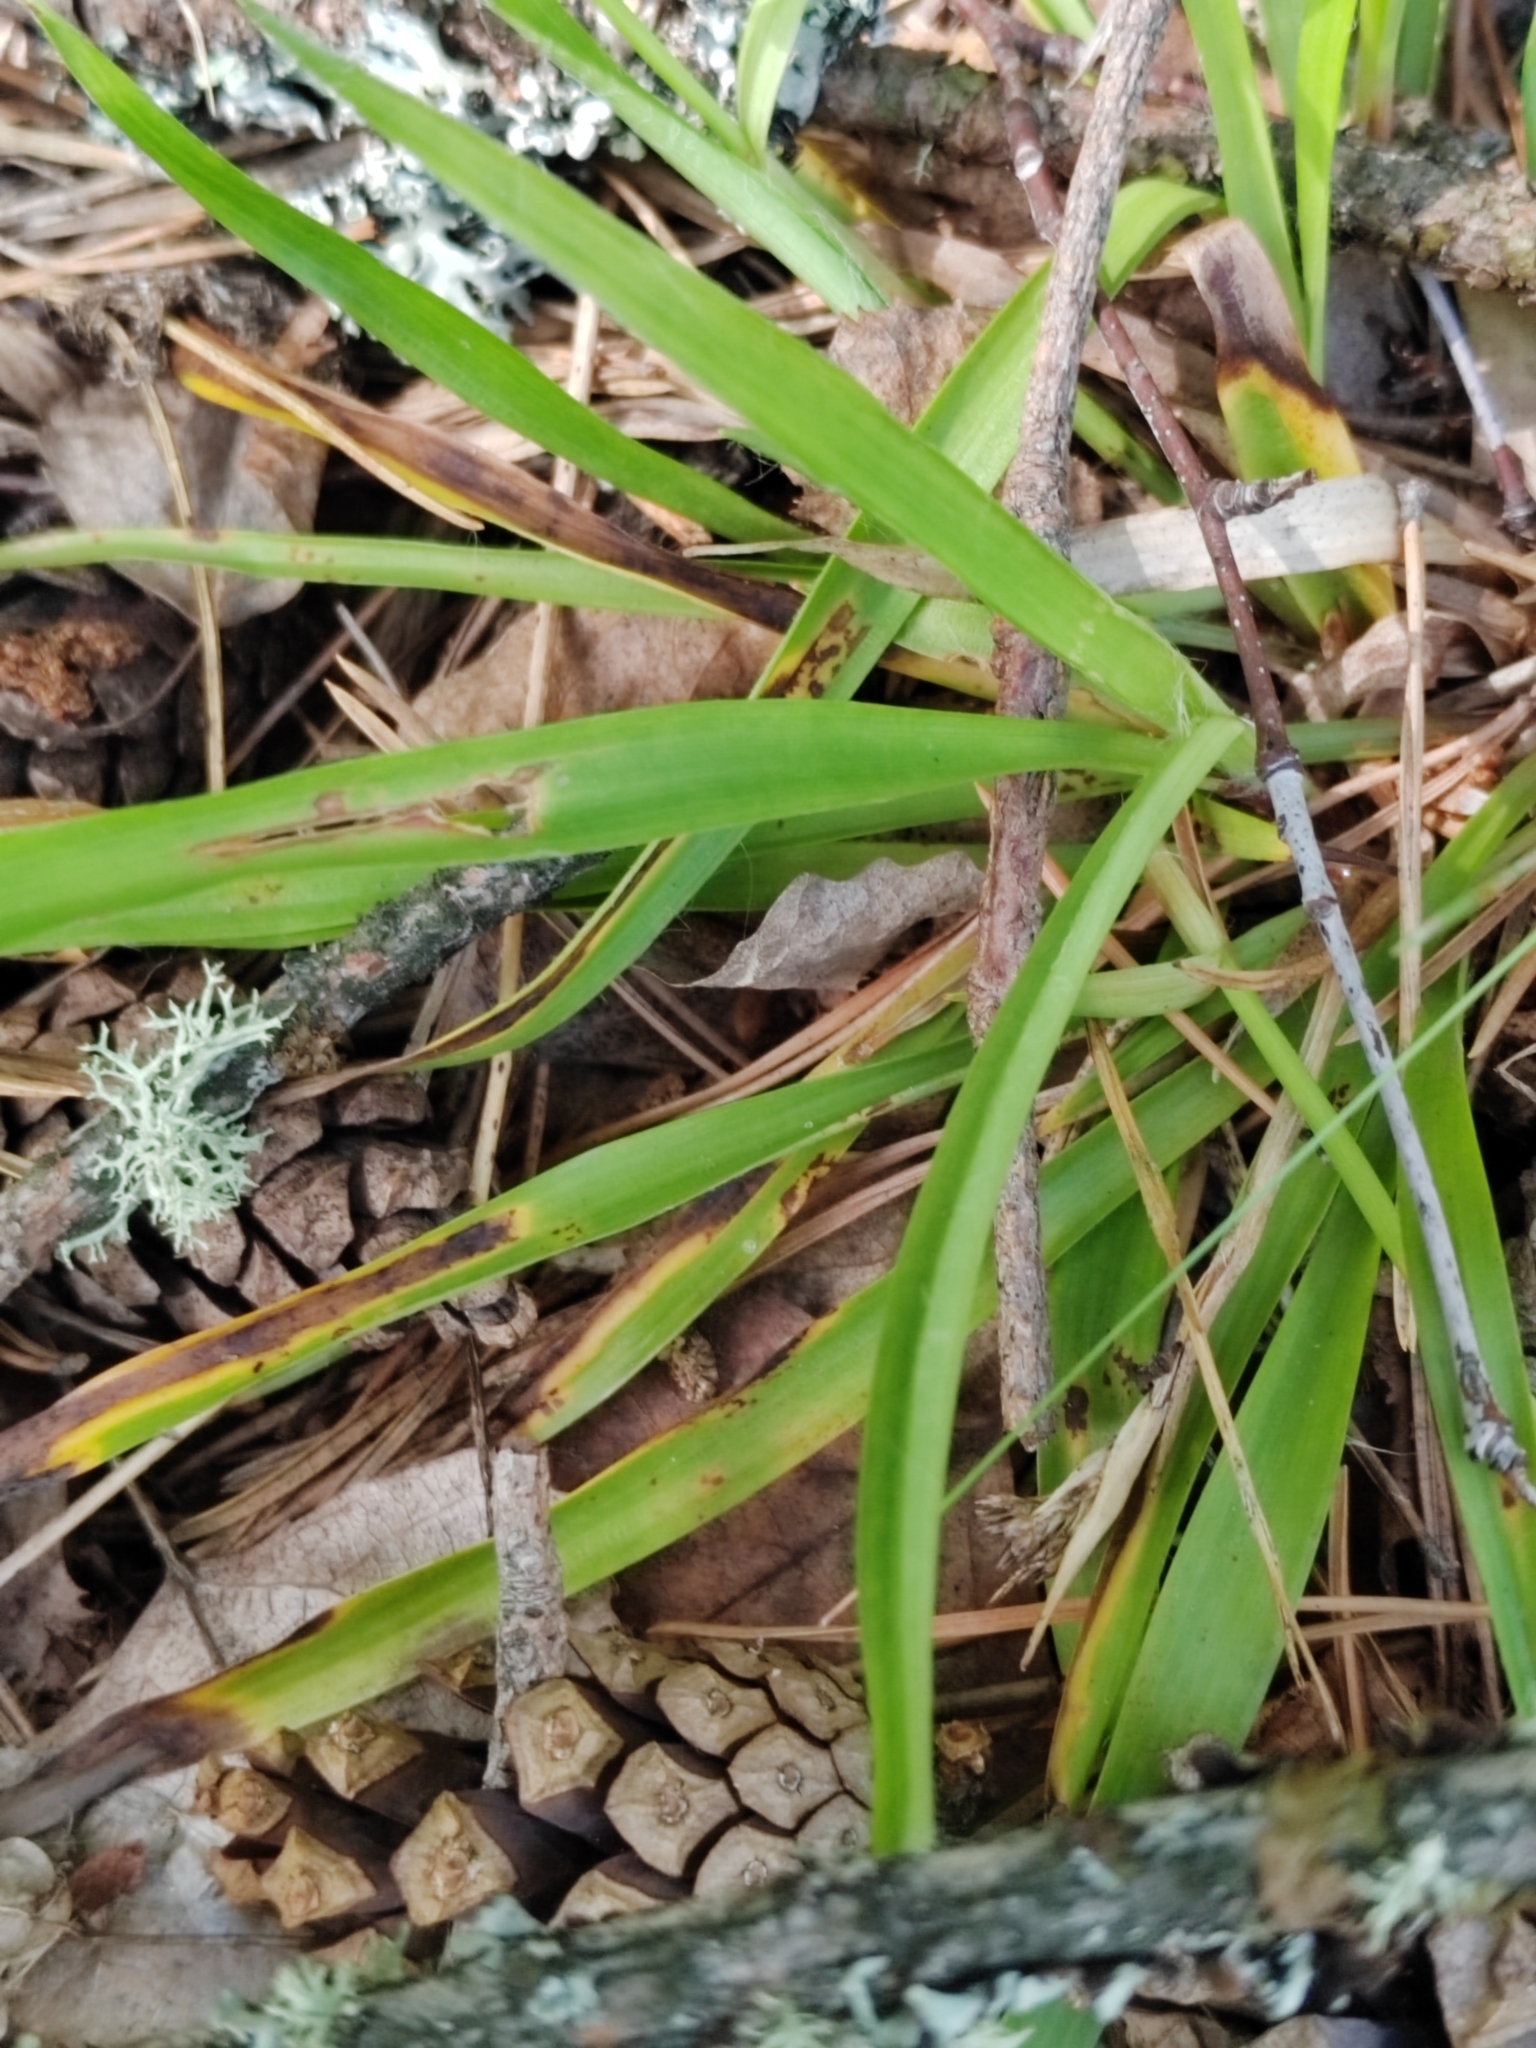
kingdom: Plantae
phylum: Tracheophyta
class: Liliopsida
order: Poales
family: Juncaceae
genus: Luzula
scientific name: Luzula pilosa
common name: Hairy wood-rush
